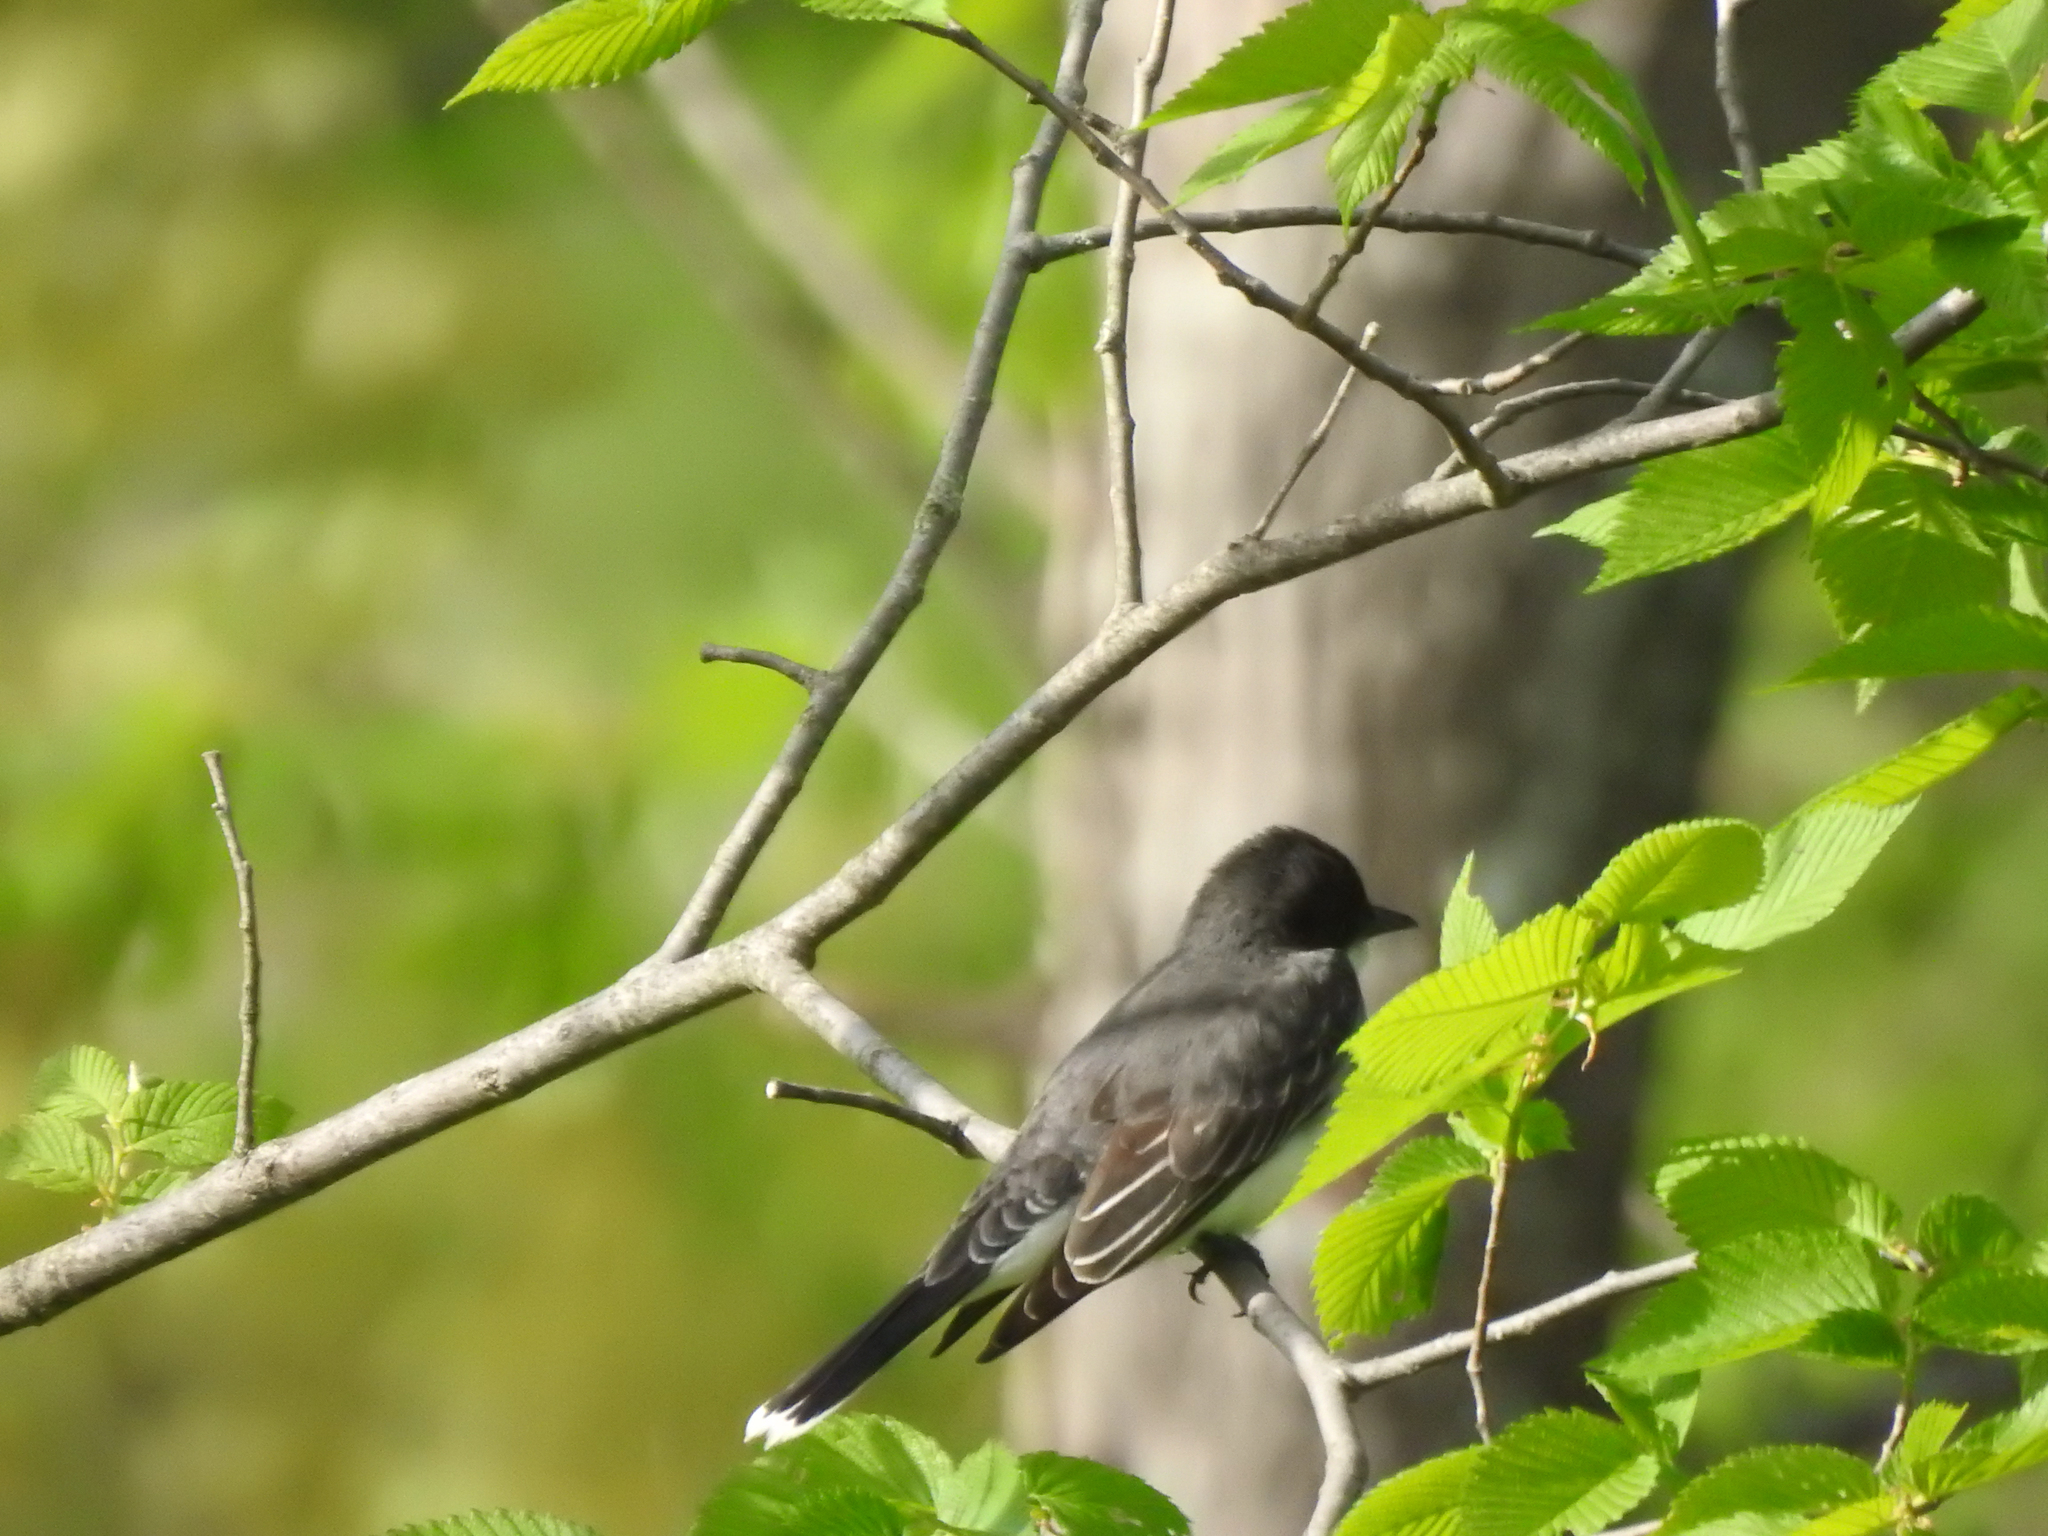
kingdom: Animalia
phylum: Chordata
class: Aves
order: Passeriformes
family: Tyrannidae
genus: Tyrannus
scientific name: Tyrannus tyrannus
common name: Eastern kingbird
